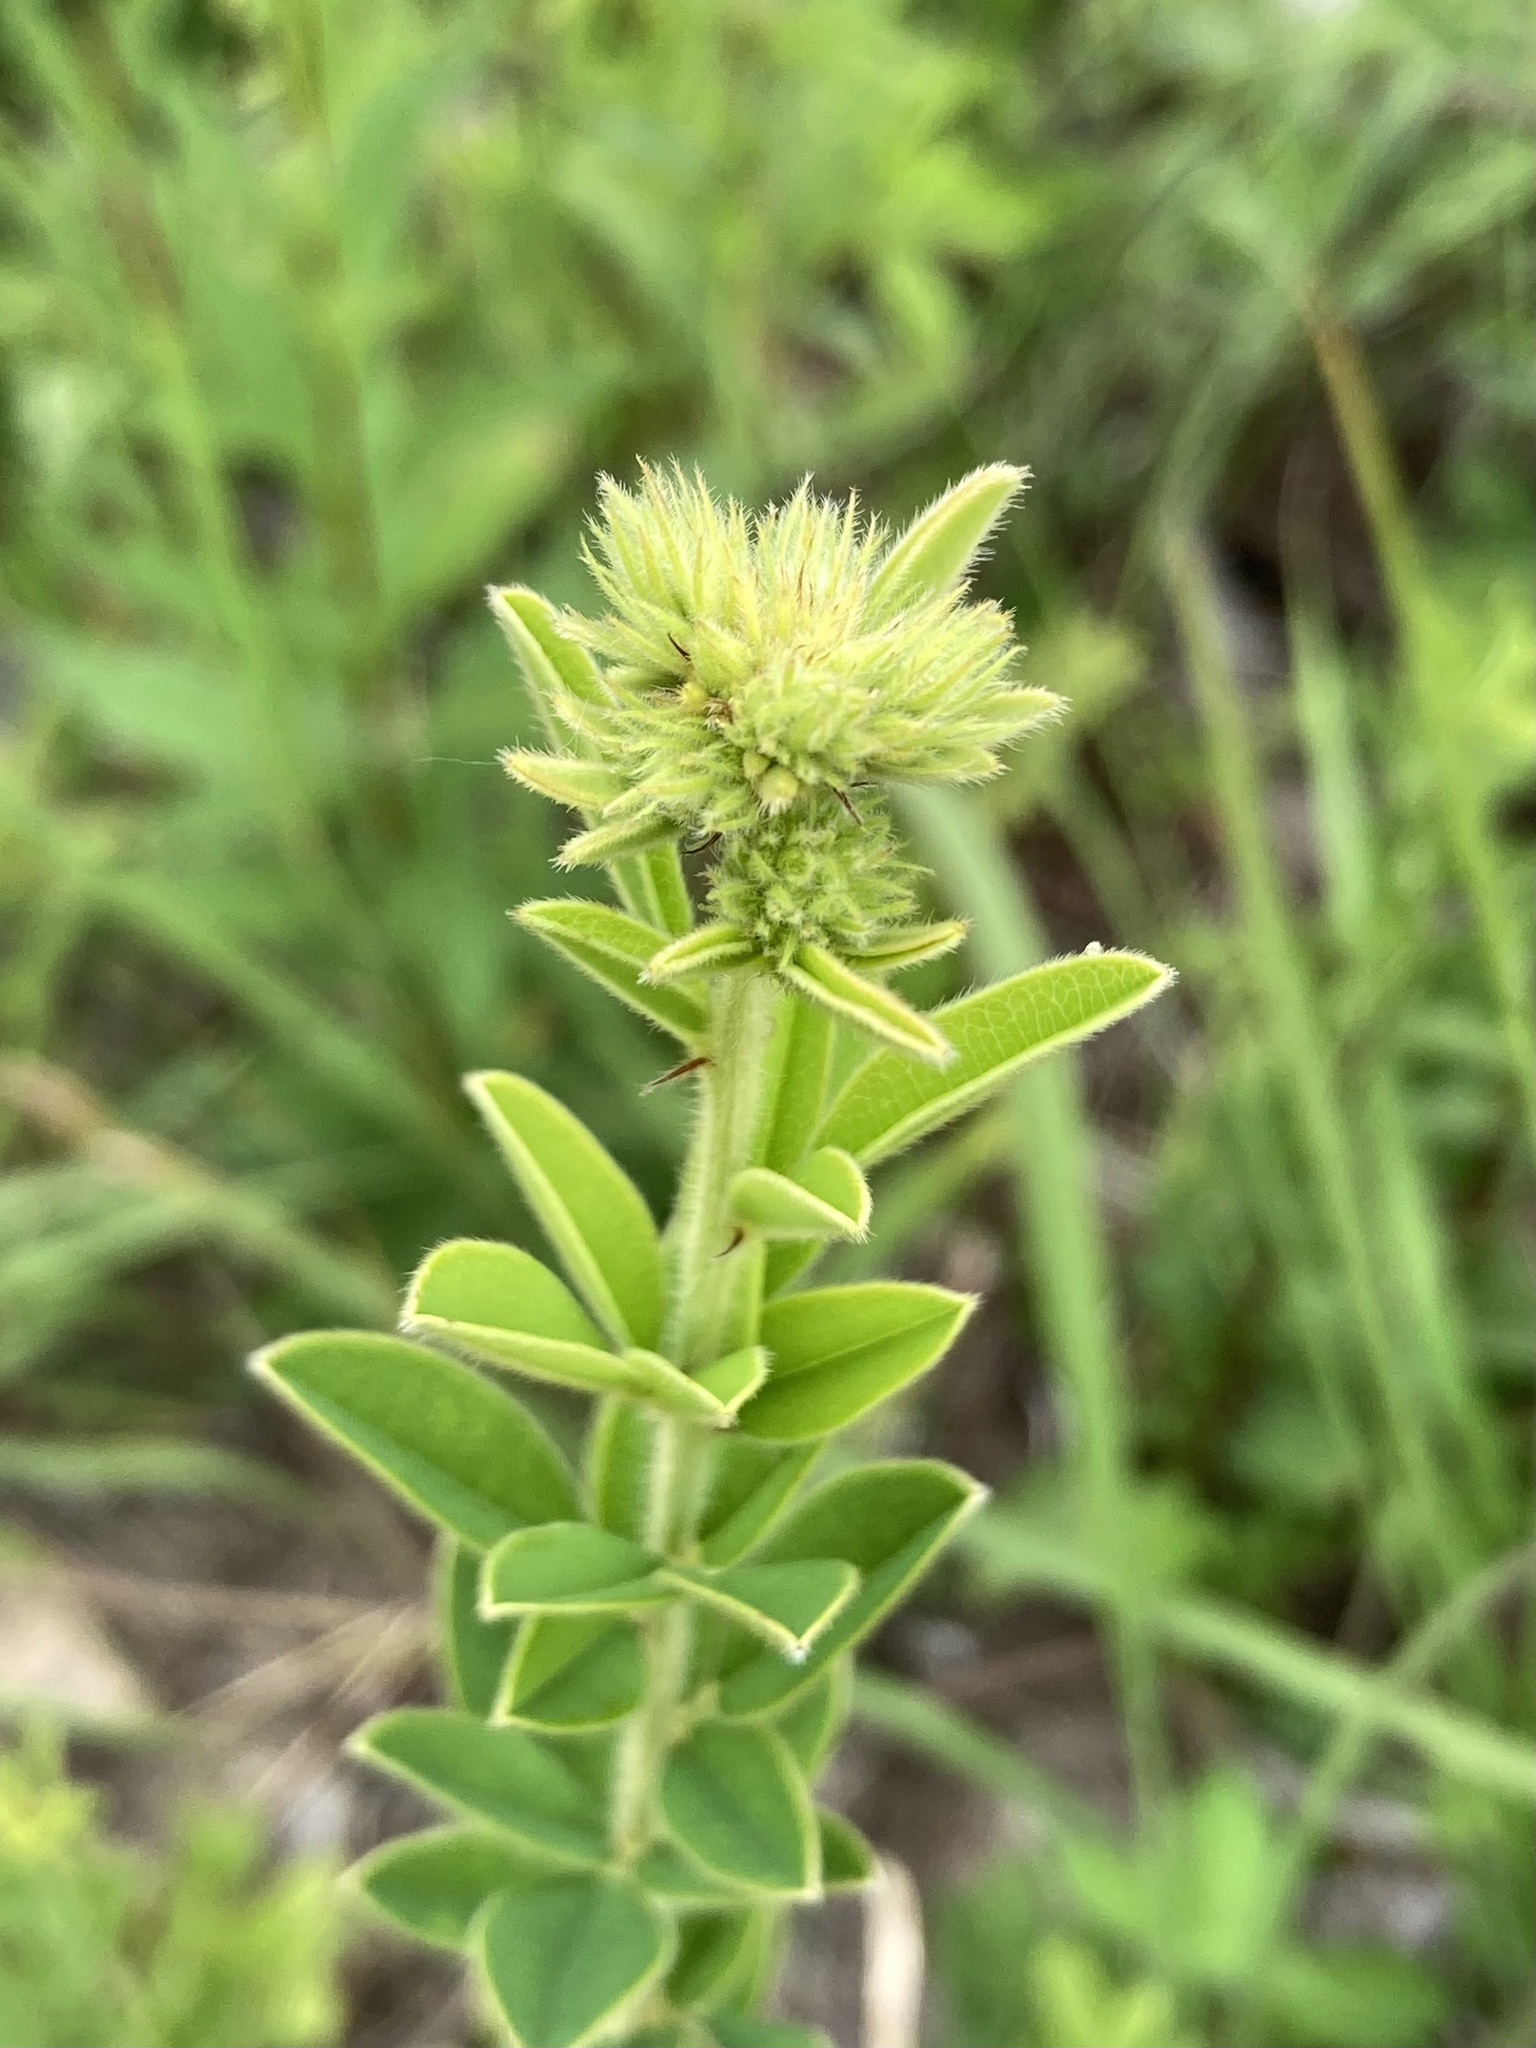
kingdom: Plantae
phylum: Tracheophyta
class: Magnoliopsida
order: Fabales
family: Fabaceae
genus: Lespedeza
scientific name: Lespedeza capitata
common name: Dusty clover
